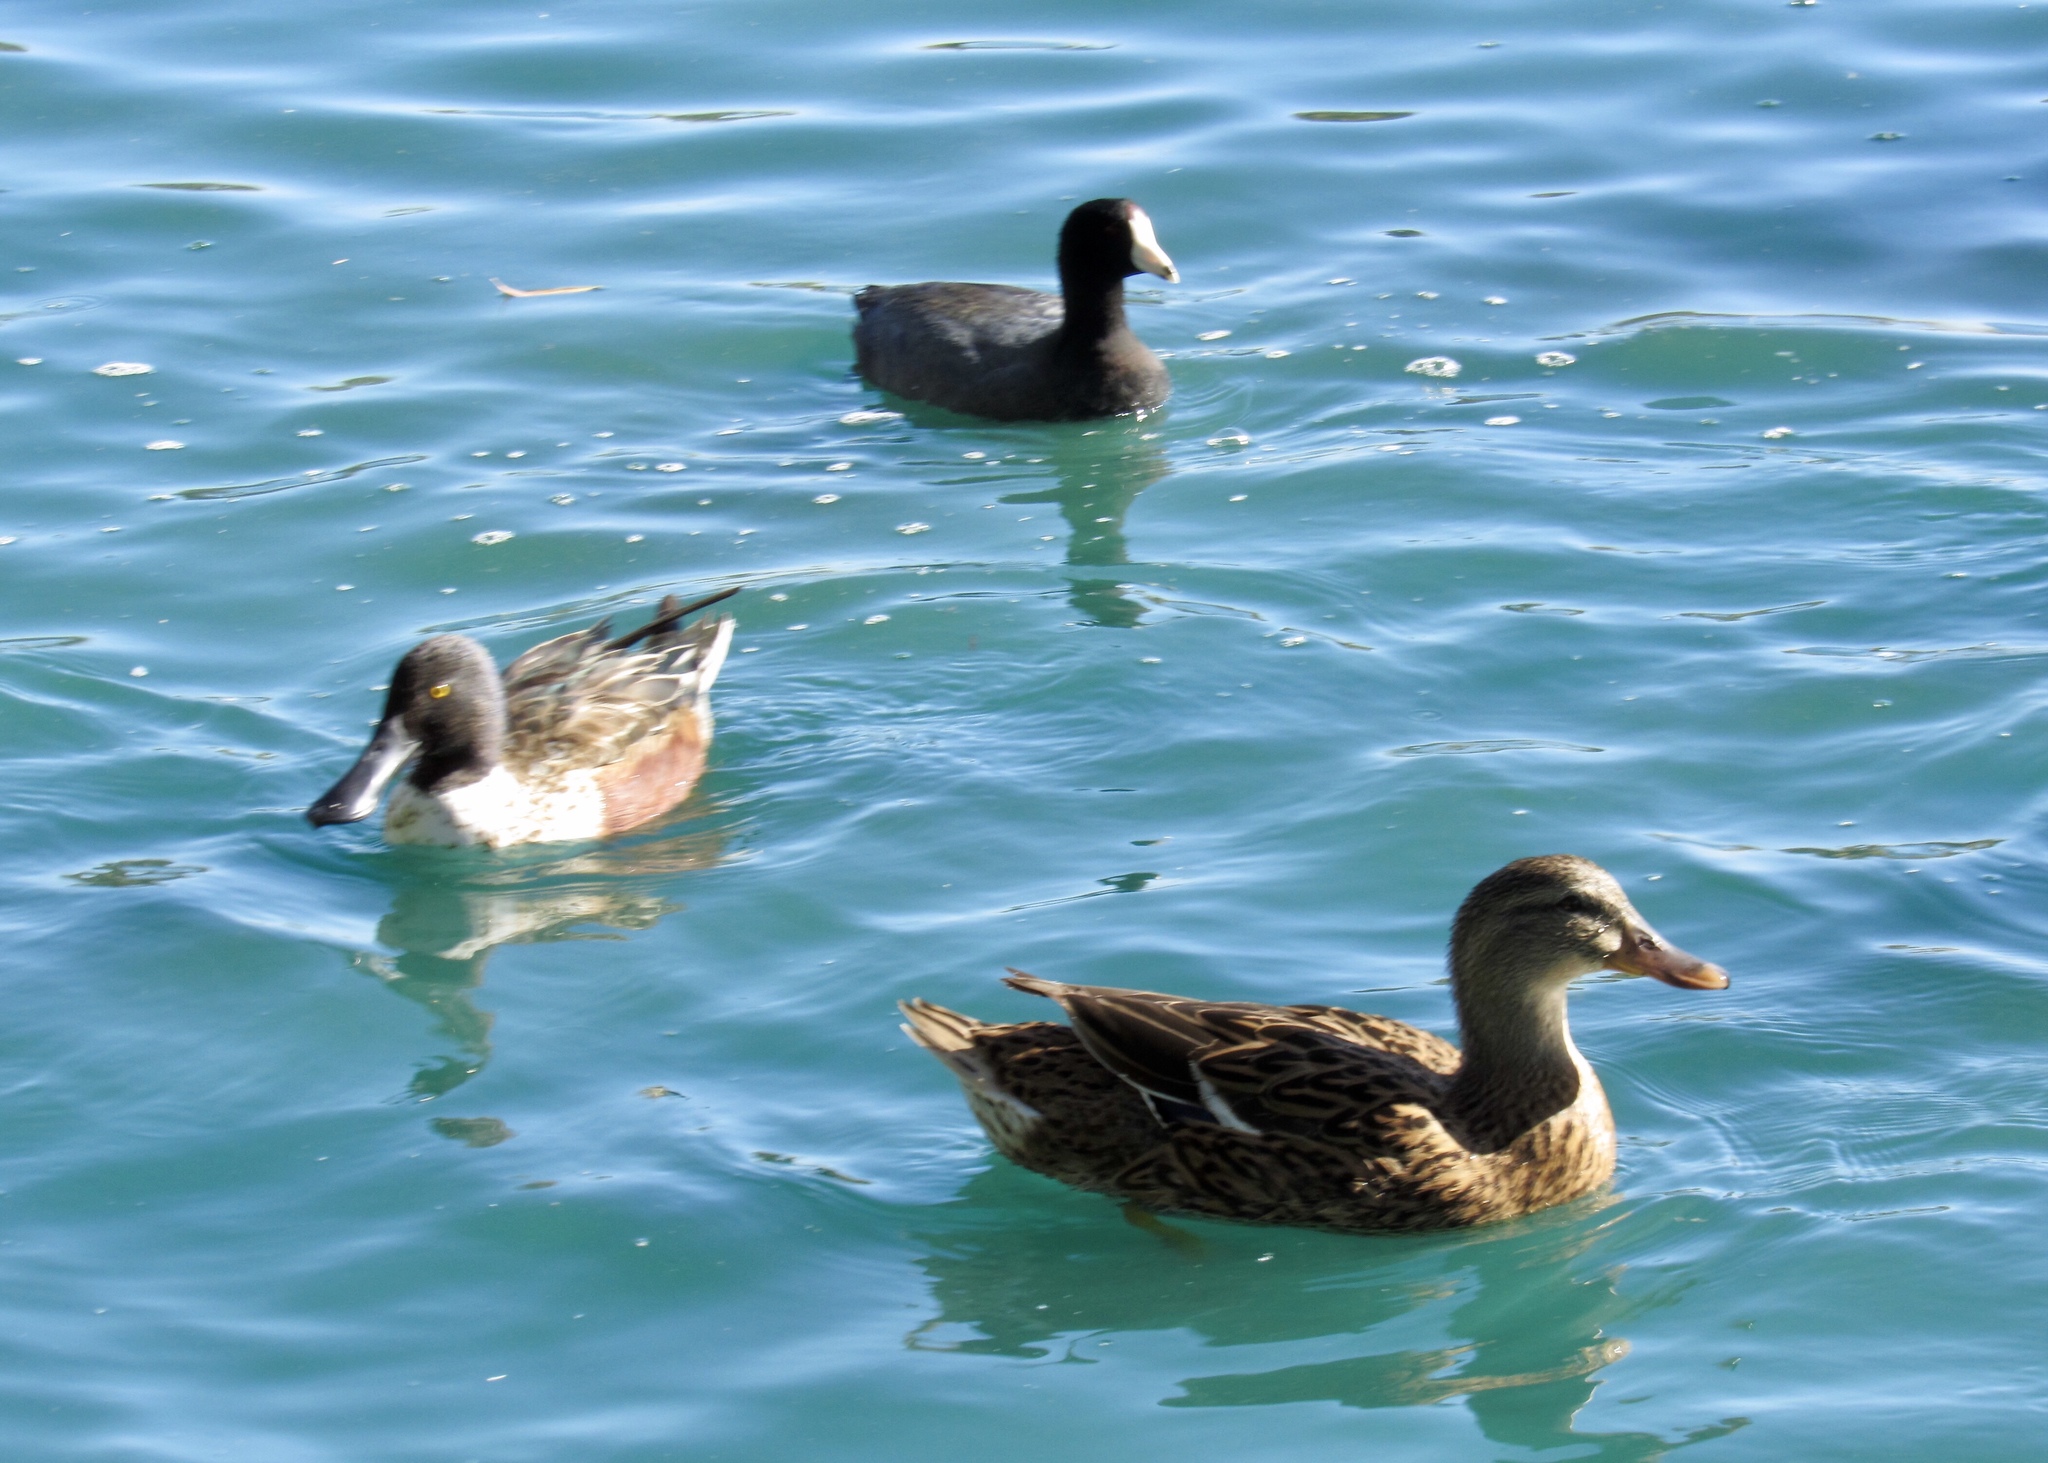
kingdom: Animalia
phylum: Chordata
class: Aves
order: Anseriformes
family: Anatidae
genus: Anas
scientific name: Anas platyrhynchos
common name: Mallard
